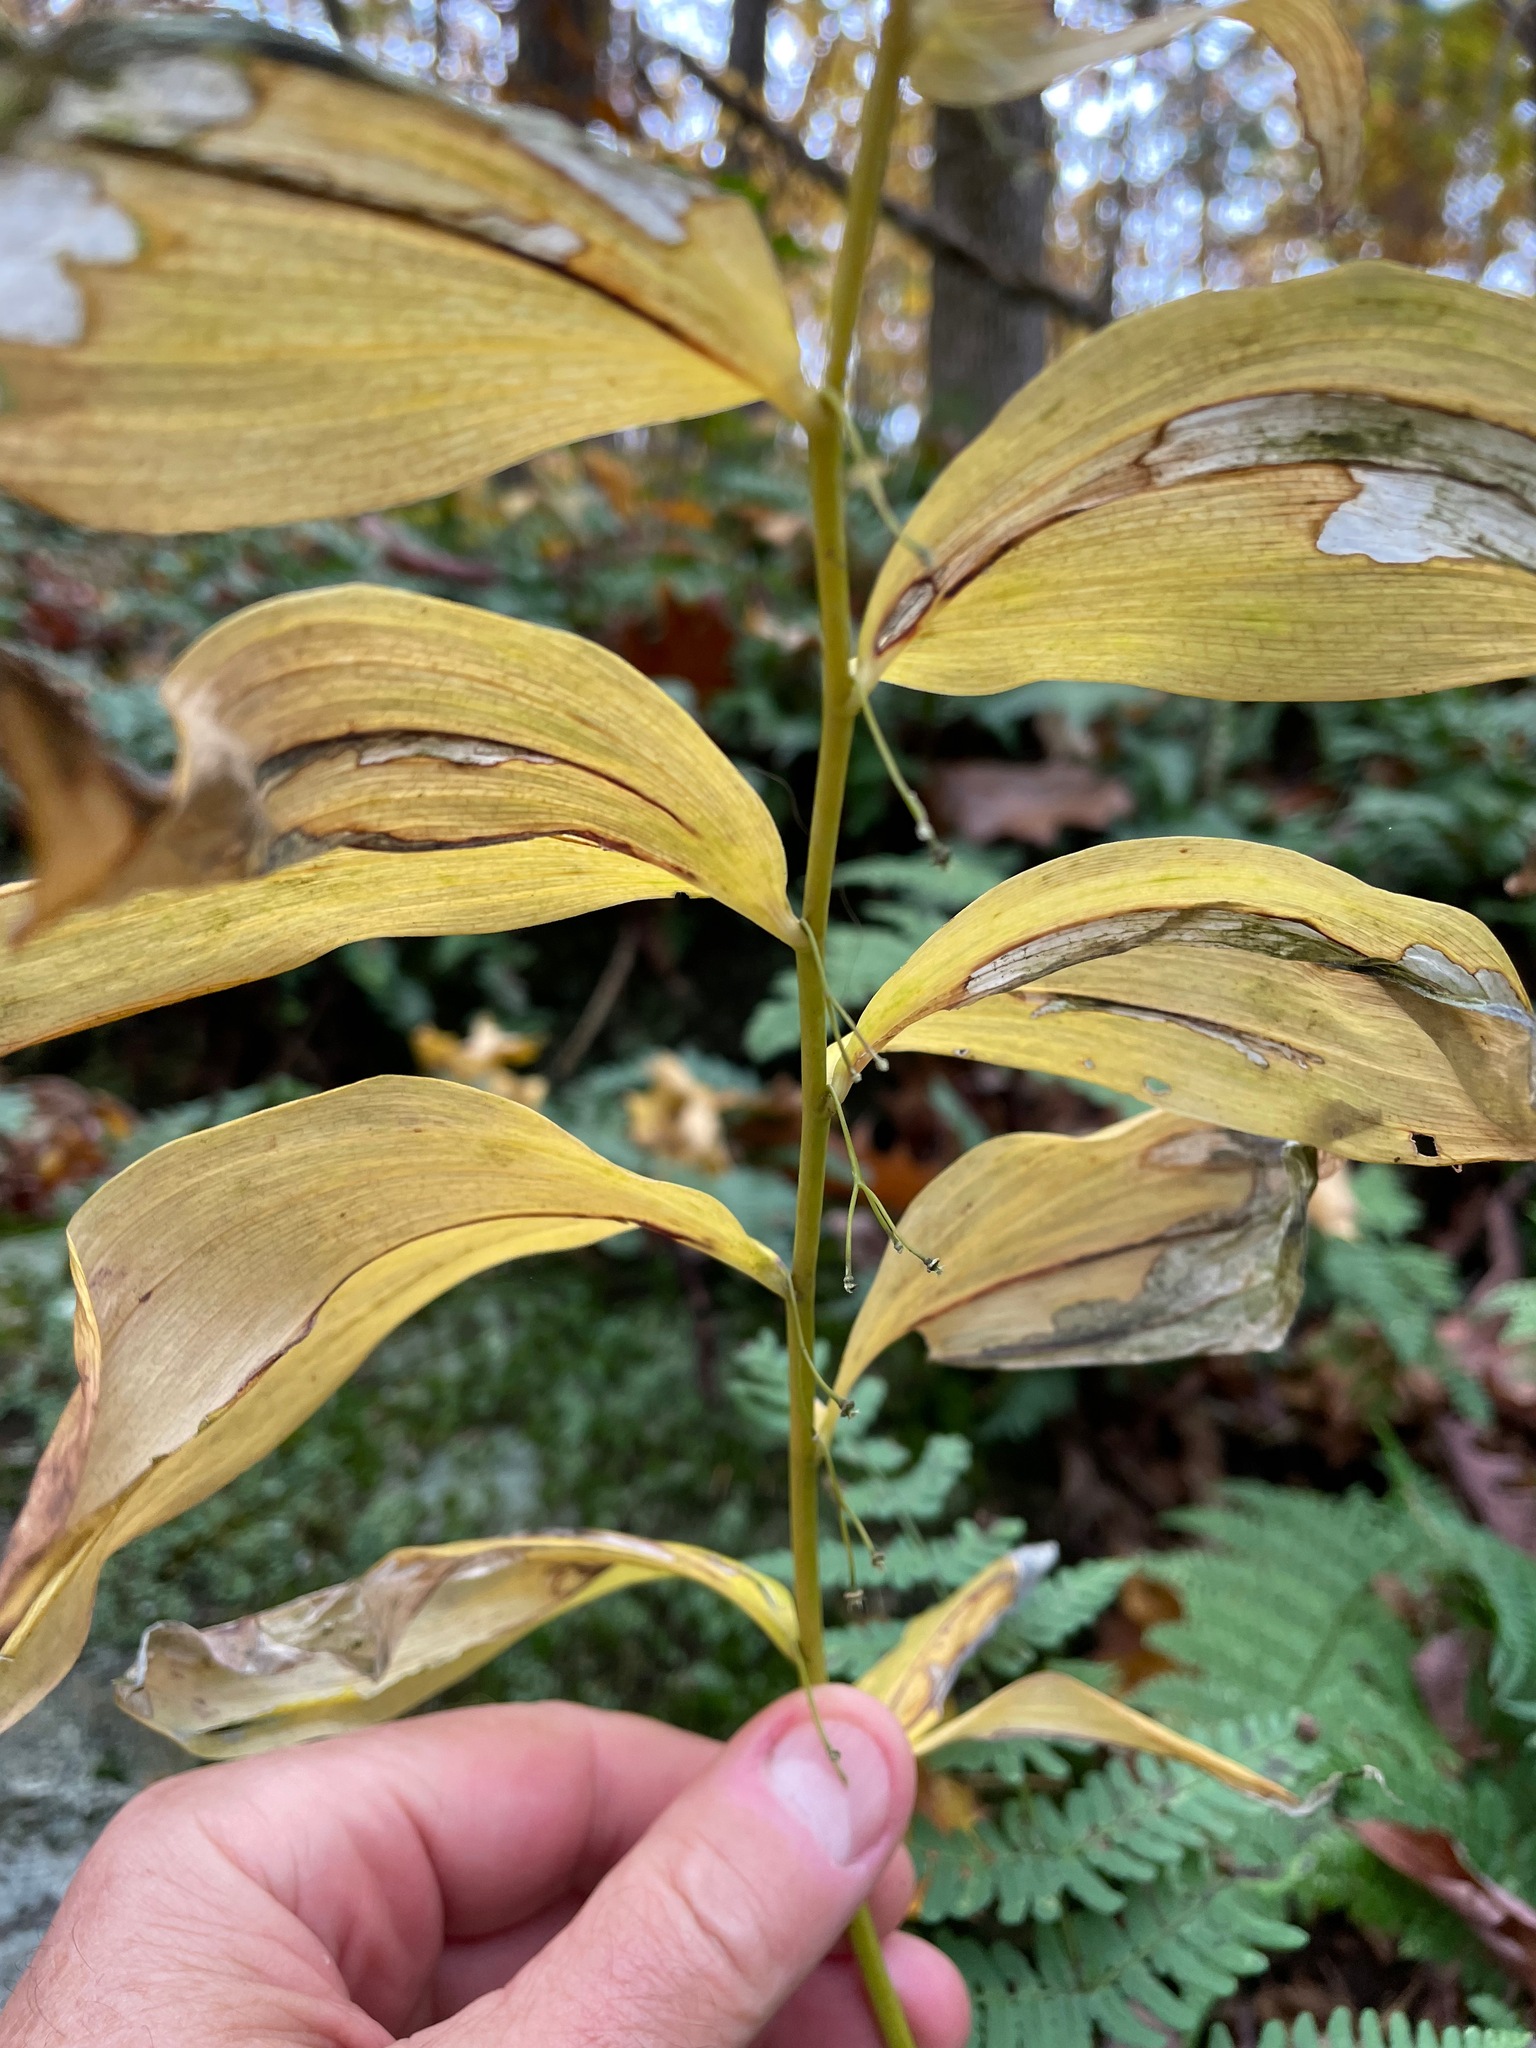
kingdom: Plantae
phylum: Tracheophyta
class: Liliopsida
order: Asparagales
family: Asparagaceae
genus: Polygonatum
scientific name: Polygonatum pubescens
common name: Downy solomon's seal
